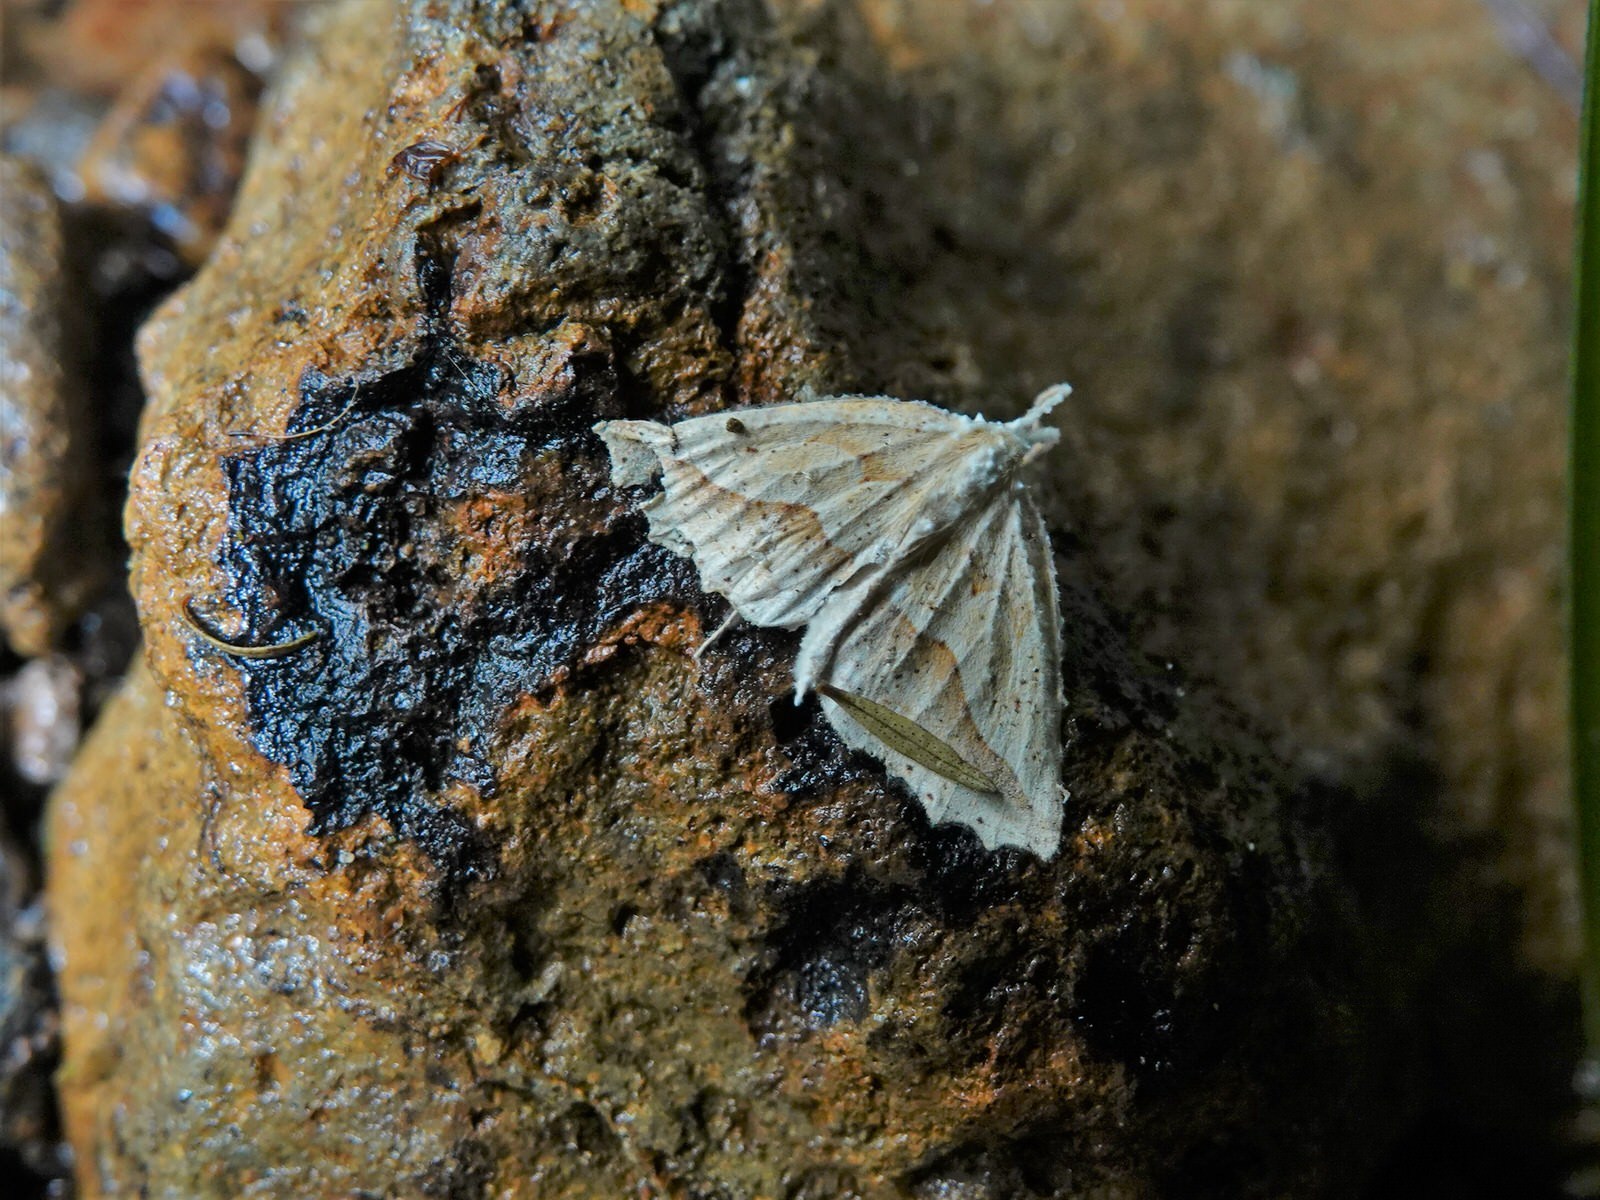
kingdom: Animalia
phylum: Arthropoda
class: Insecta
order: Lepidoptera
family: Geometridae
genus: Ischalis
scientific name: Ischalis variabilis
